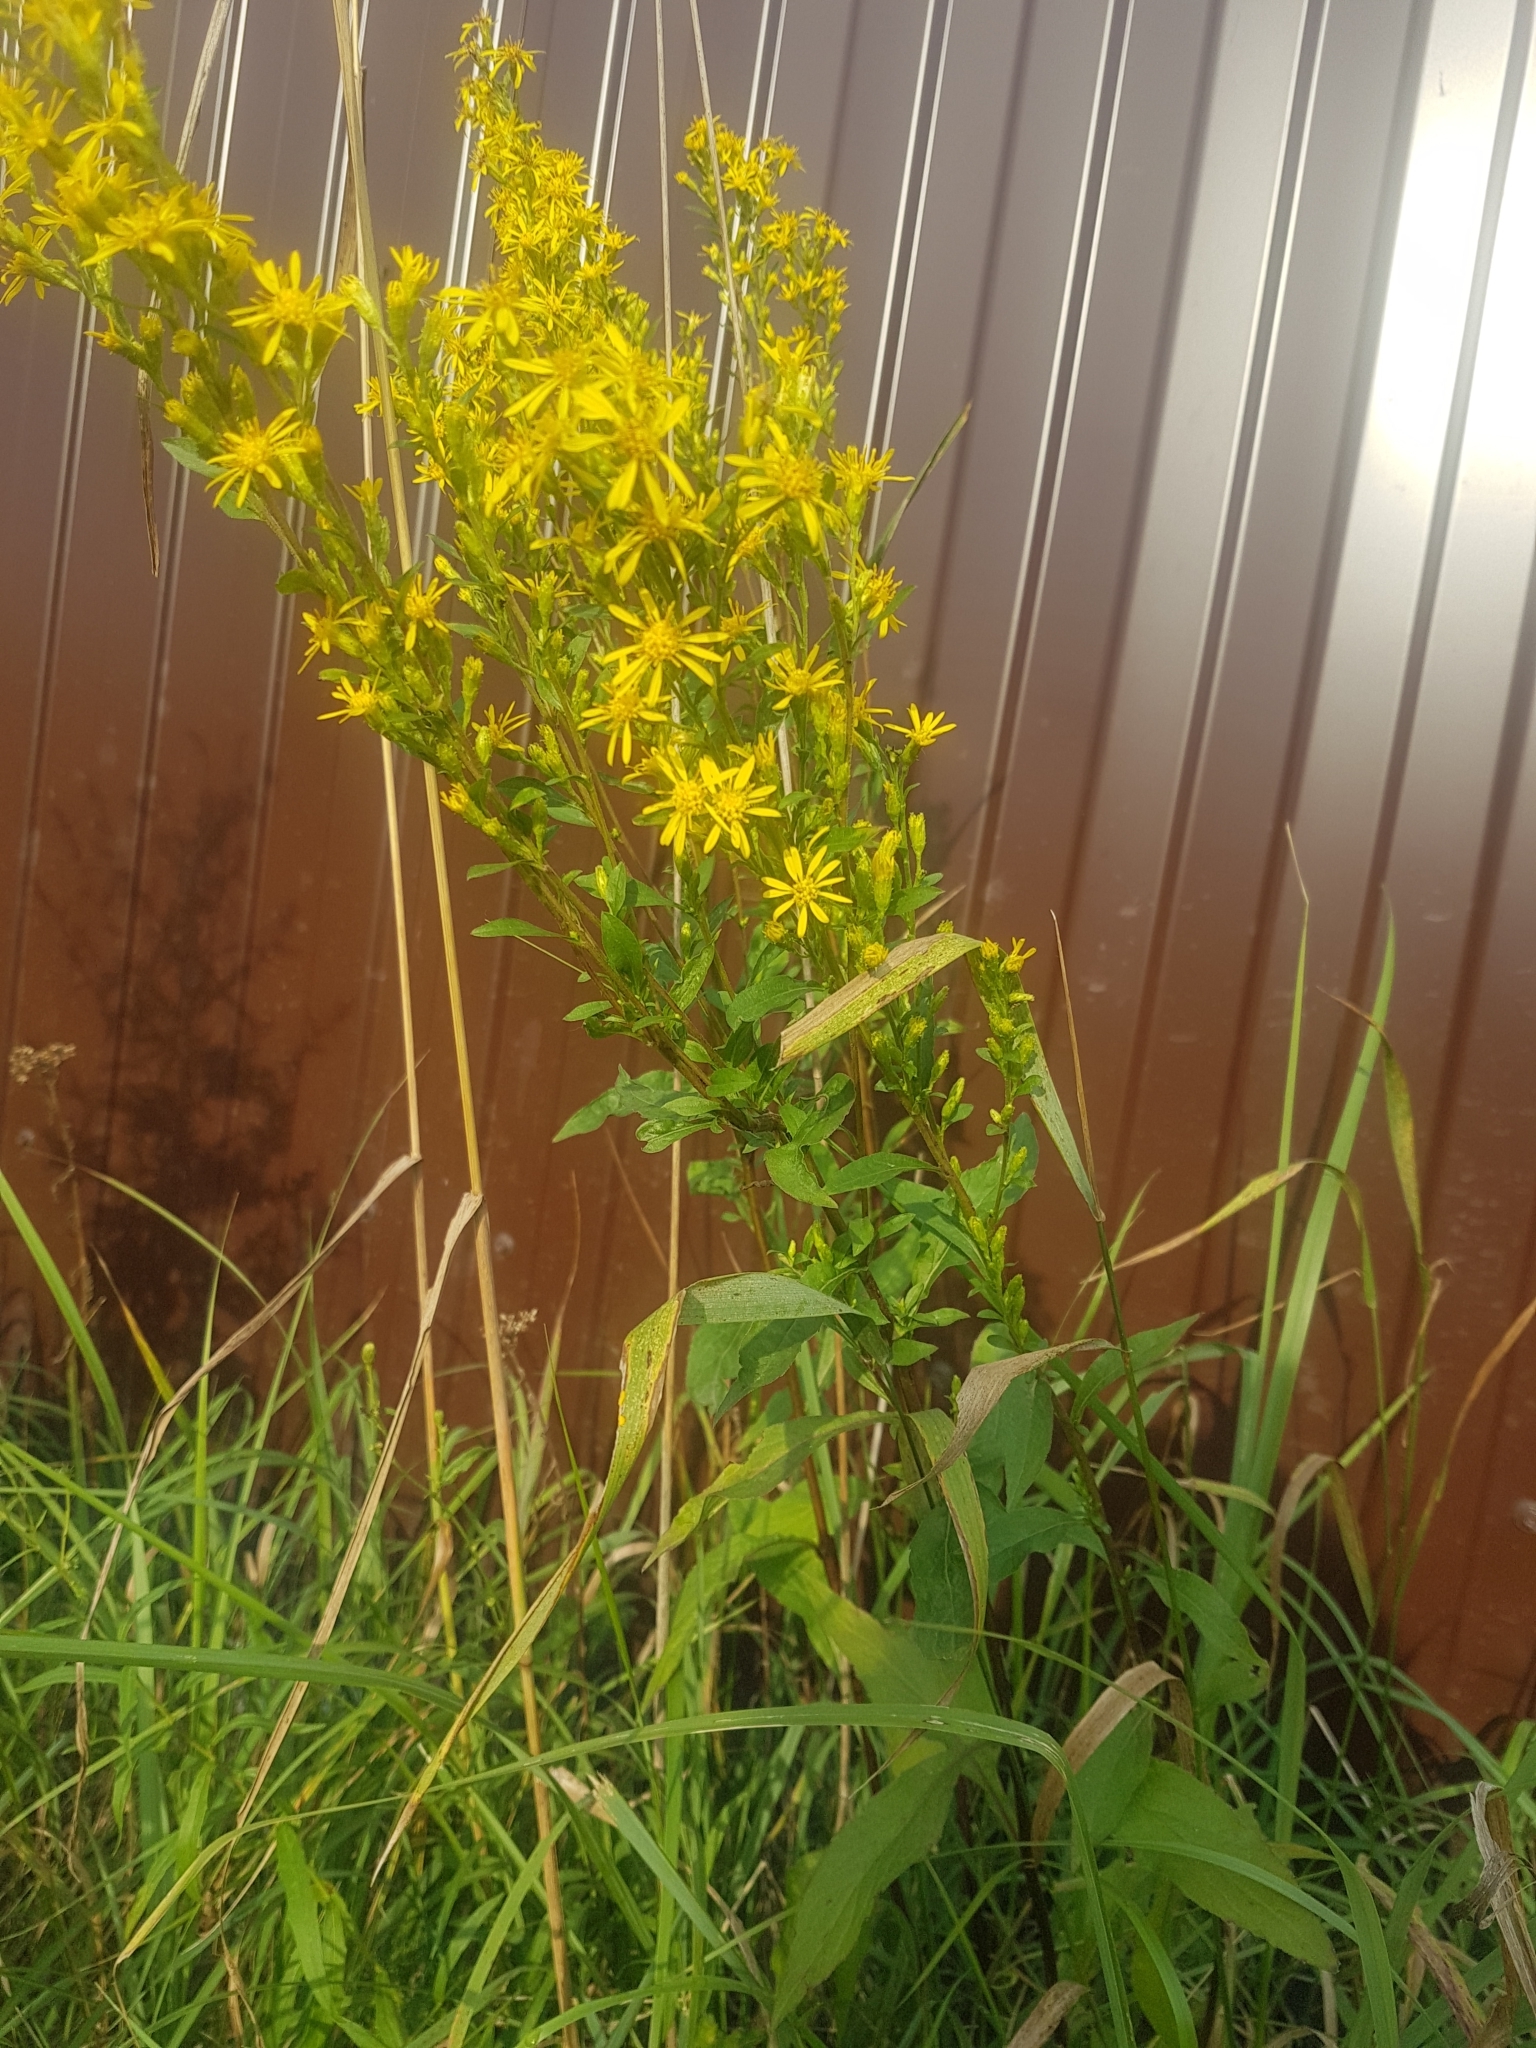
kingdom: Plantae
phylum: Tracheophyta
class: Magnoliopsida
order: Asterales
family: Asteraceae
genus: Solidago
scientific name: Solidago virgaurea
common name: Goldenrod
